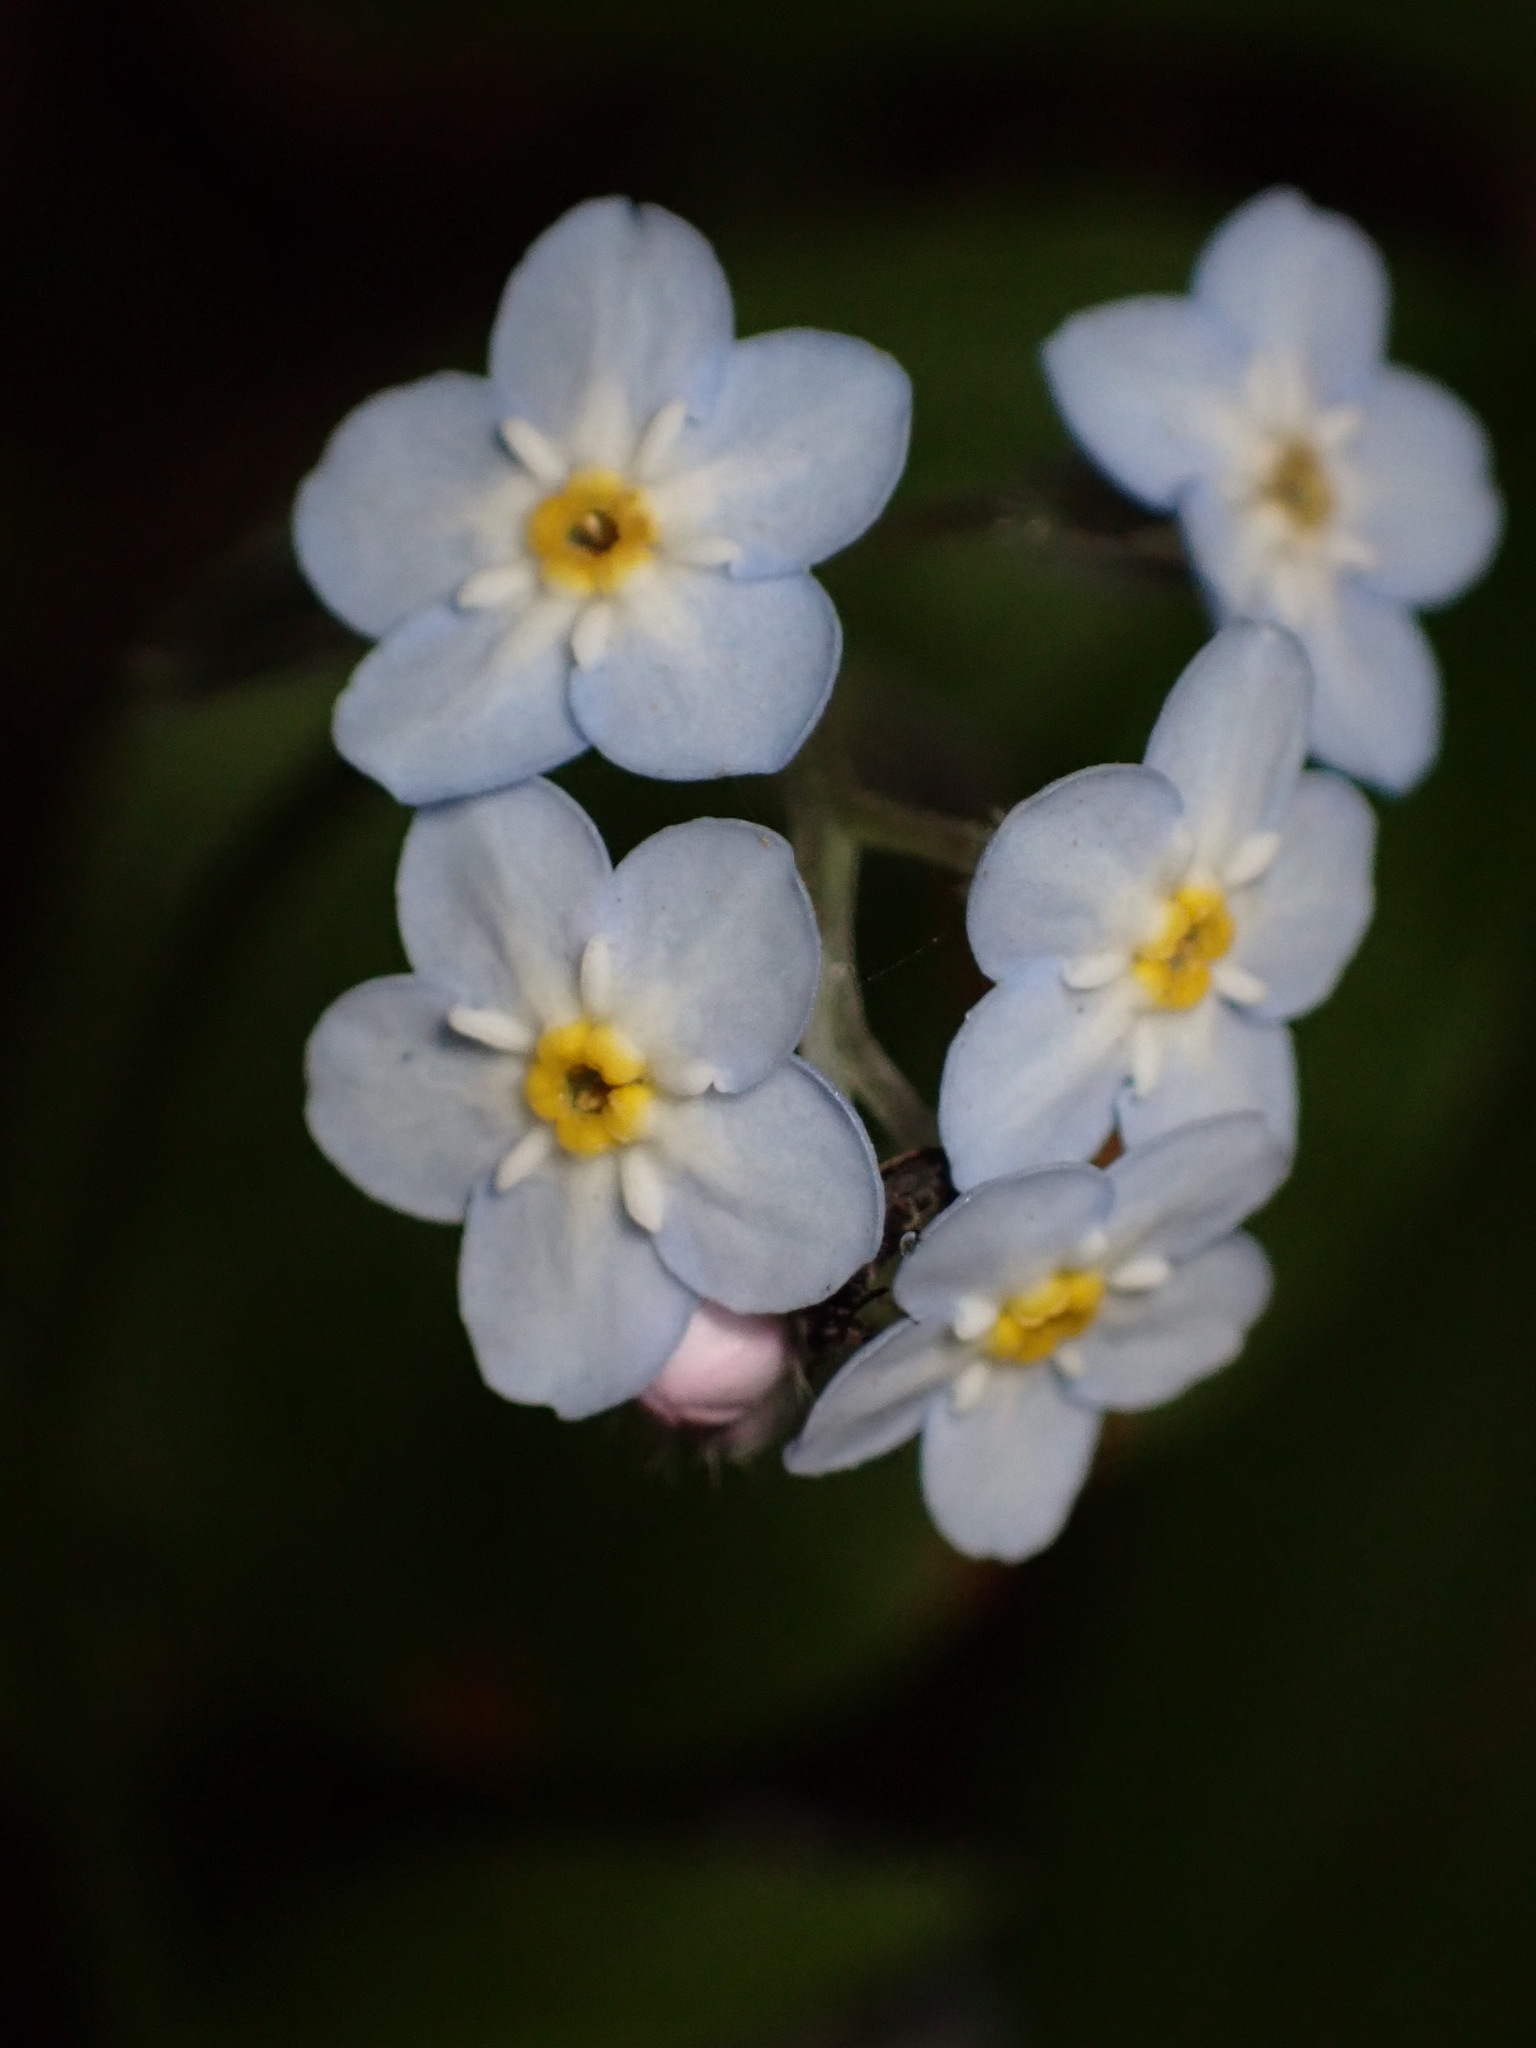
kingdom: Plantae
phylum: Tracheophyta
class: Magnoliopsida
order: Boraginales
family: Boraginaceae
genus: Myosotis
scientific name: Myosotis latifolia
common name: Broadleaf forget-me-not
